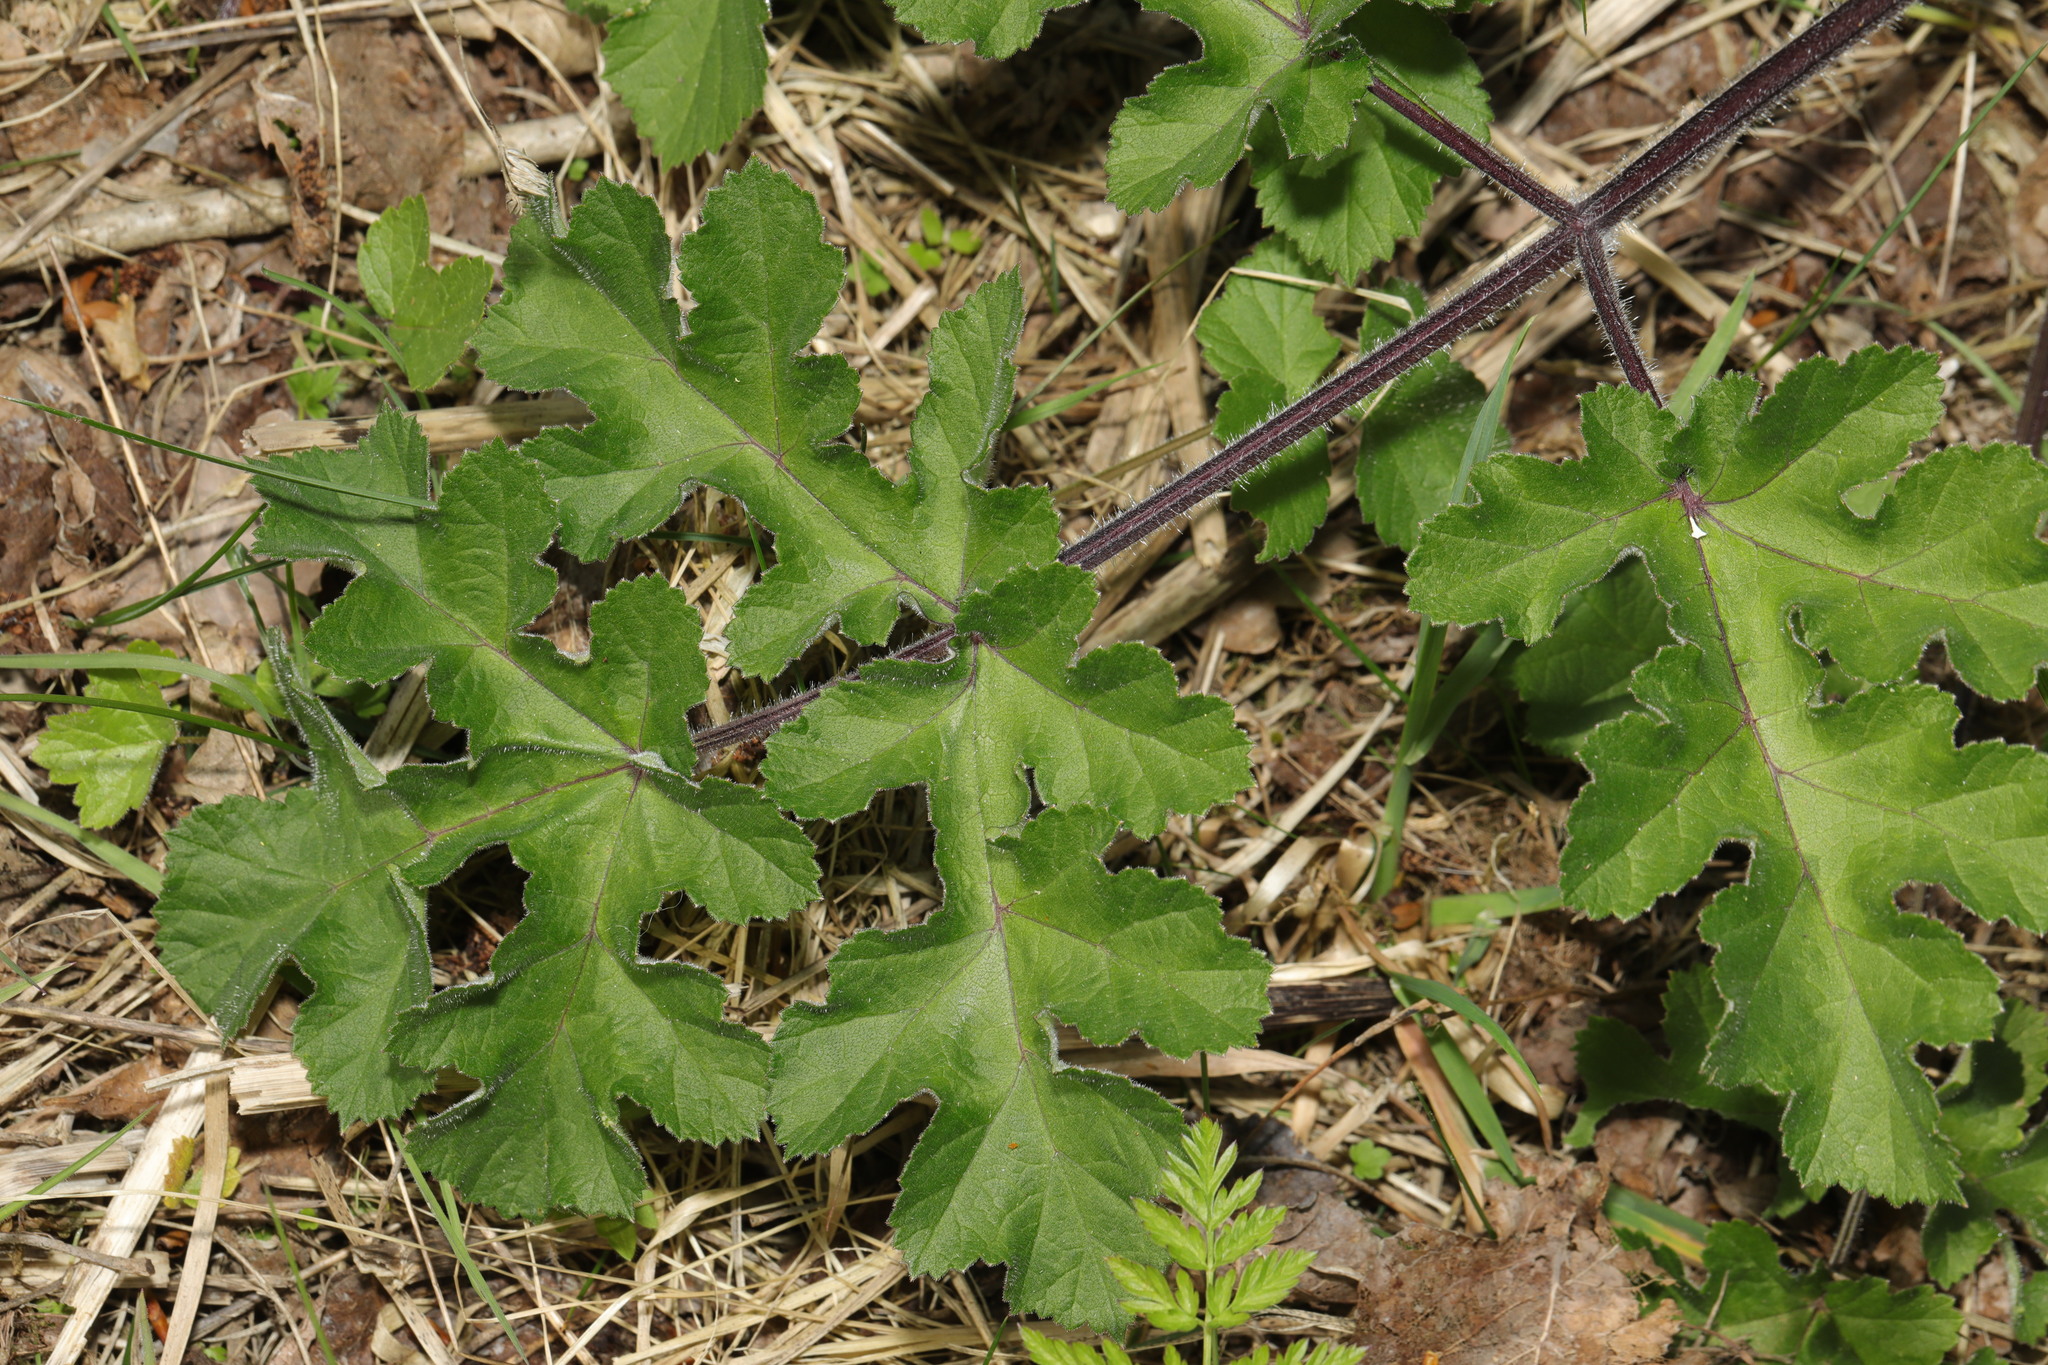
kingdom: Plantae
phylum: Tracheophyta
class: Magnoliopsida
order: Apiales
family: Apiaceae
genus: Heracleum
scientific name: Heracleum sphondylium
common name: Hogweed
